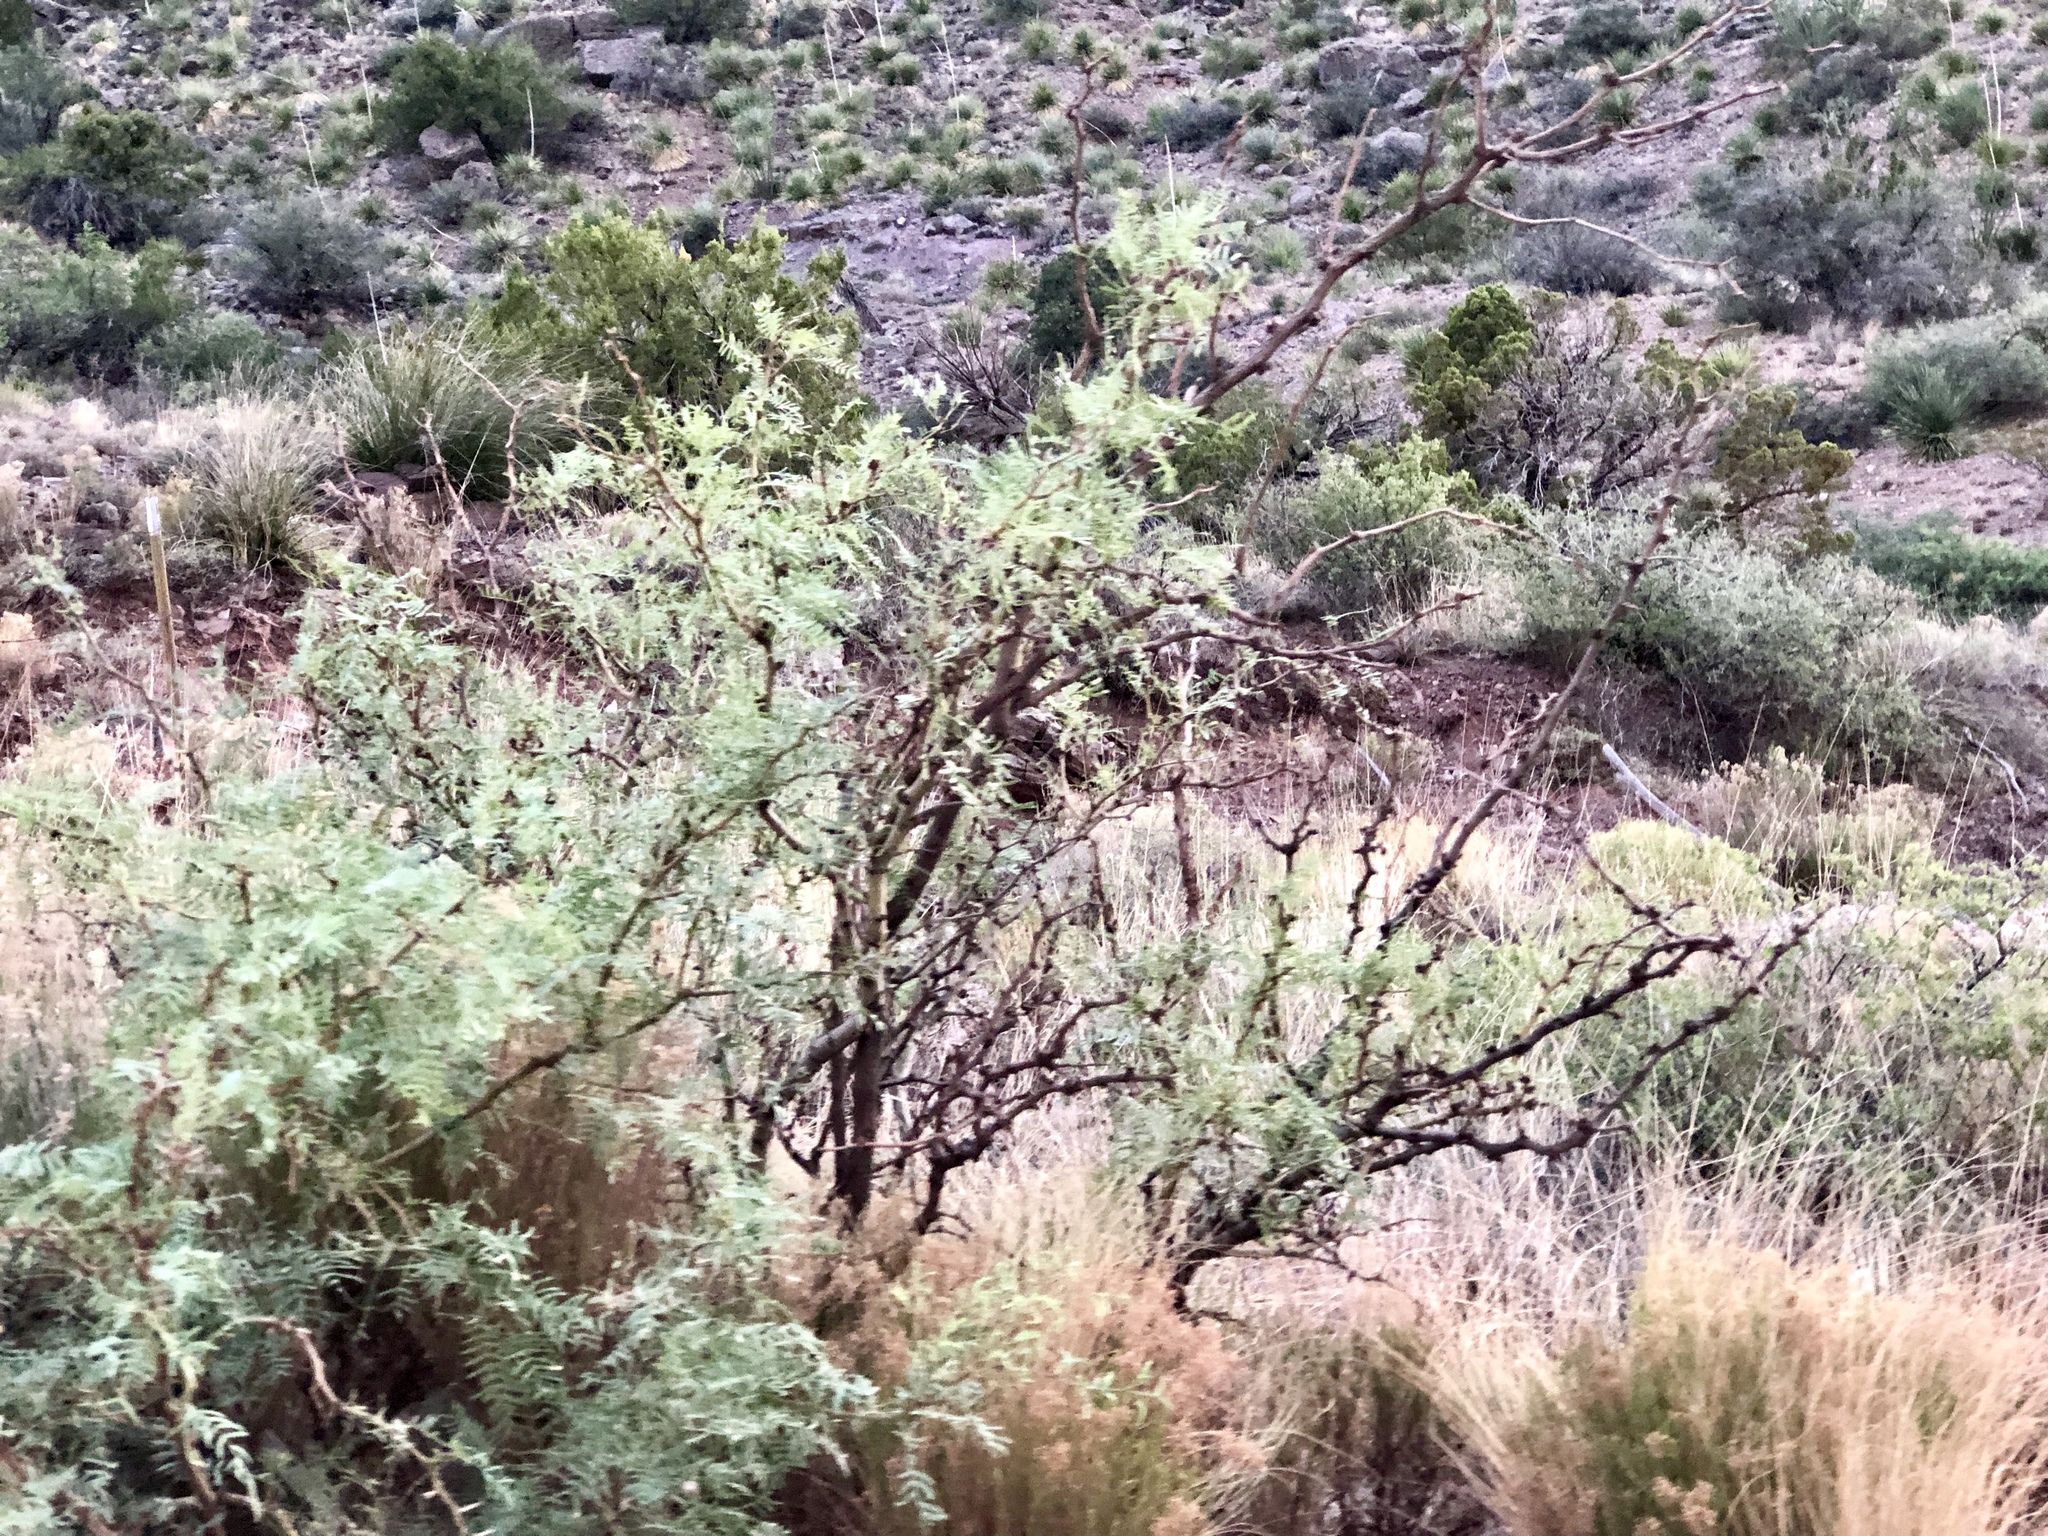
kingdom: Plantae
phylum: Tracheophyta
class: Magnoliopsida
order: Fabales
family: Fabaceae
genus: Prosopis
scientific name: Prosopis glandulosa
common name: Honey mesquite
